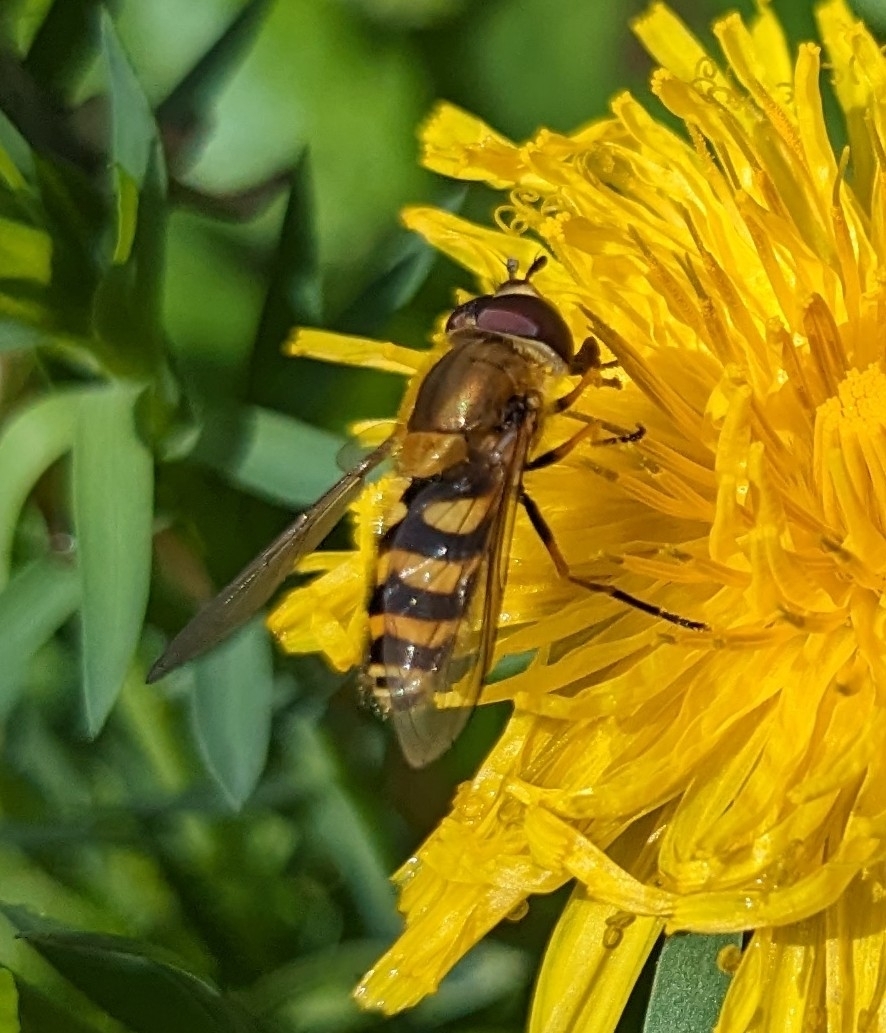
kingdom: Animalia
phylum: Arthropoda
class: Insecta
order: Diptera
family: Syrphidae
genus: Syrphus
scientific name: Syrphus
